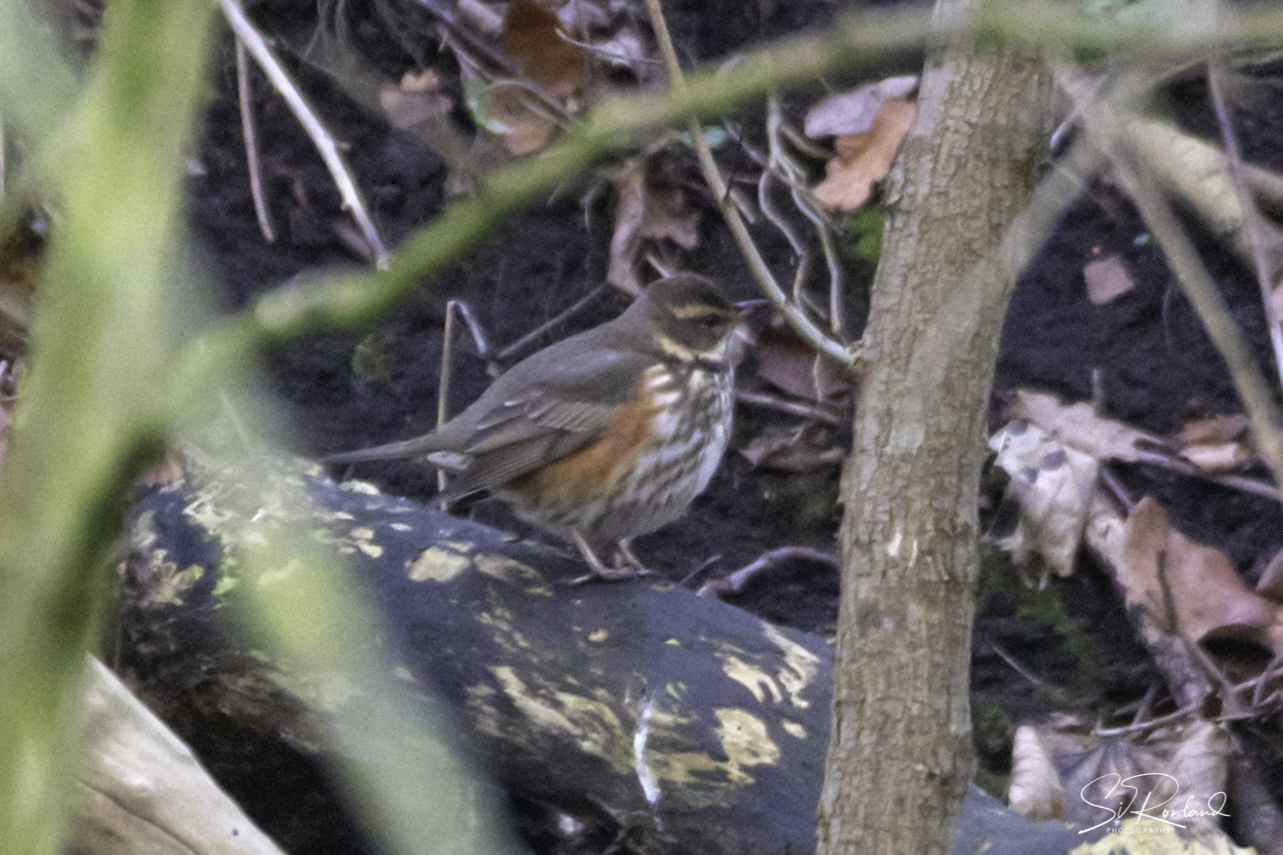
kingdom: Animalia
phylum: Chordata
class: Aves
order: Passeriformes
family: Turdidae
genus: Turdus
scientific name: Turdus iliacus
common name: Redwing
